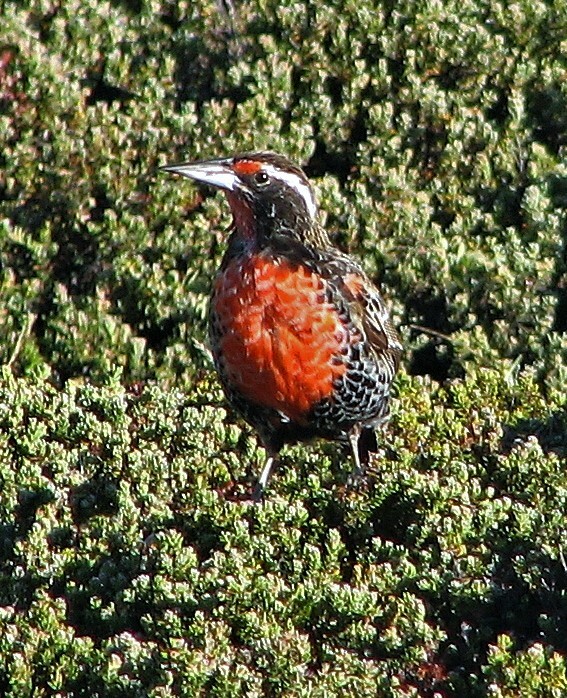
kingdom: Animalia
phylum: Chordata
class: Aves
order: Passeriformes
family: Icteridae
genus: Sturnella
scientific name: Sturnella loyca
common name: Long-tailed meadowlark
